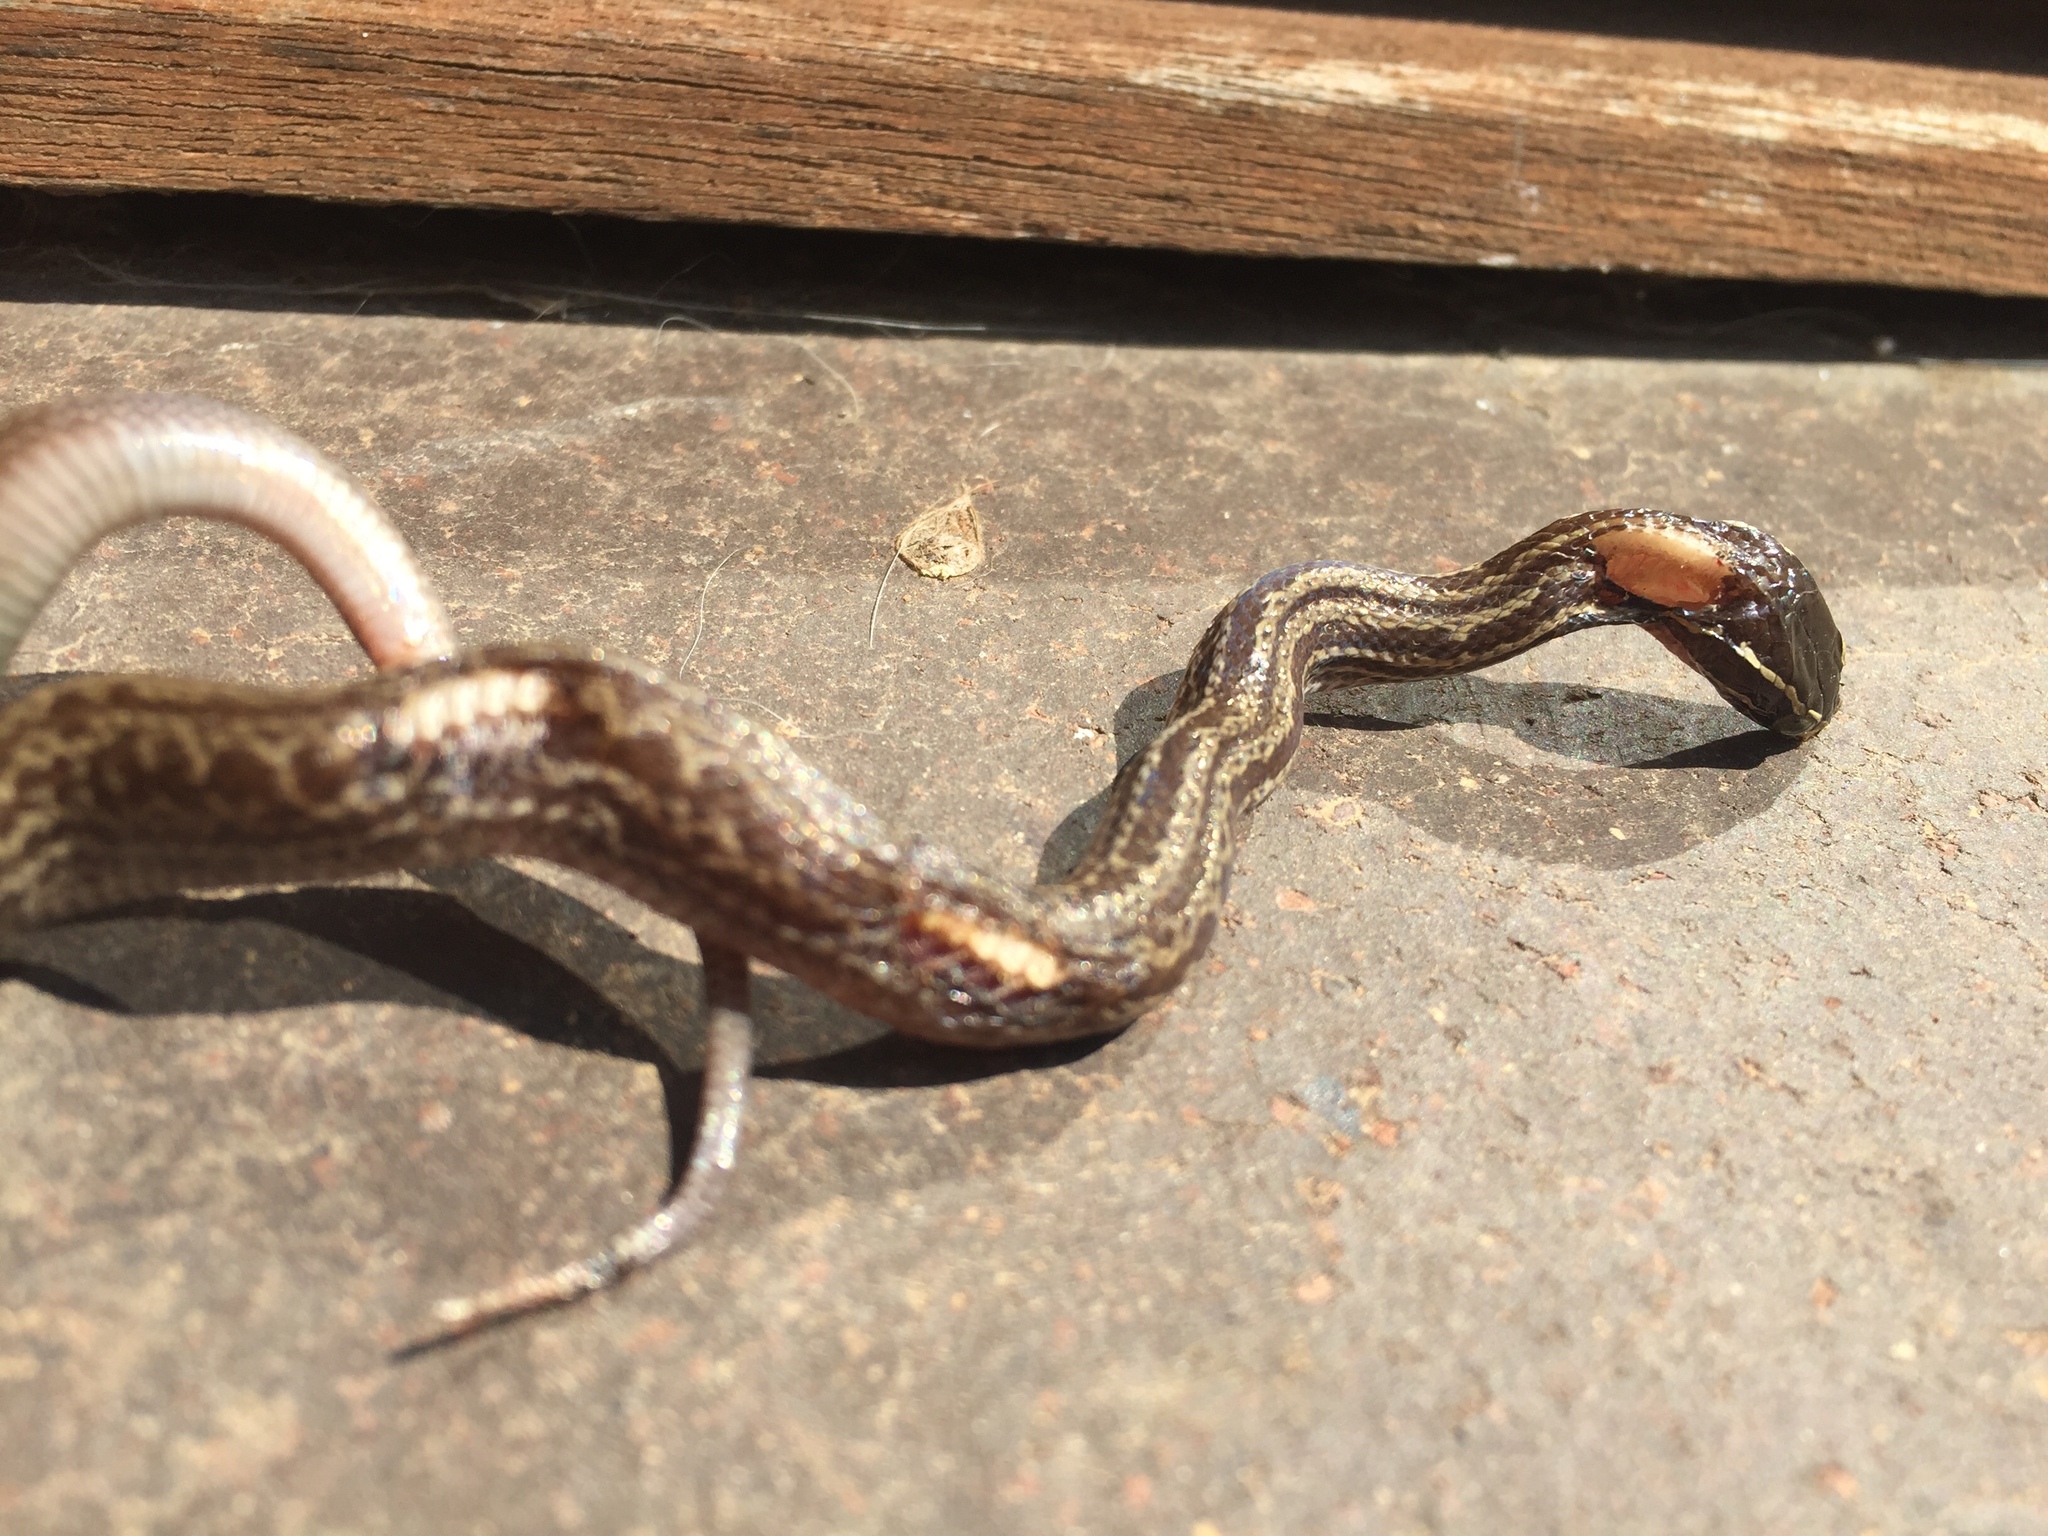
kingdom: Animalia
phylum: Chordata
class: Squamata
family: Lamprophiidae
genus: Boaedon
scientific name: Boaedon capensis
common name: Brown house snake
